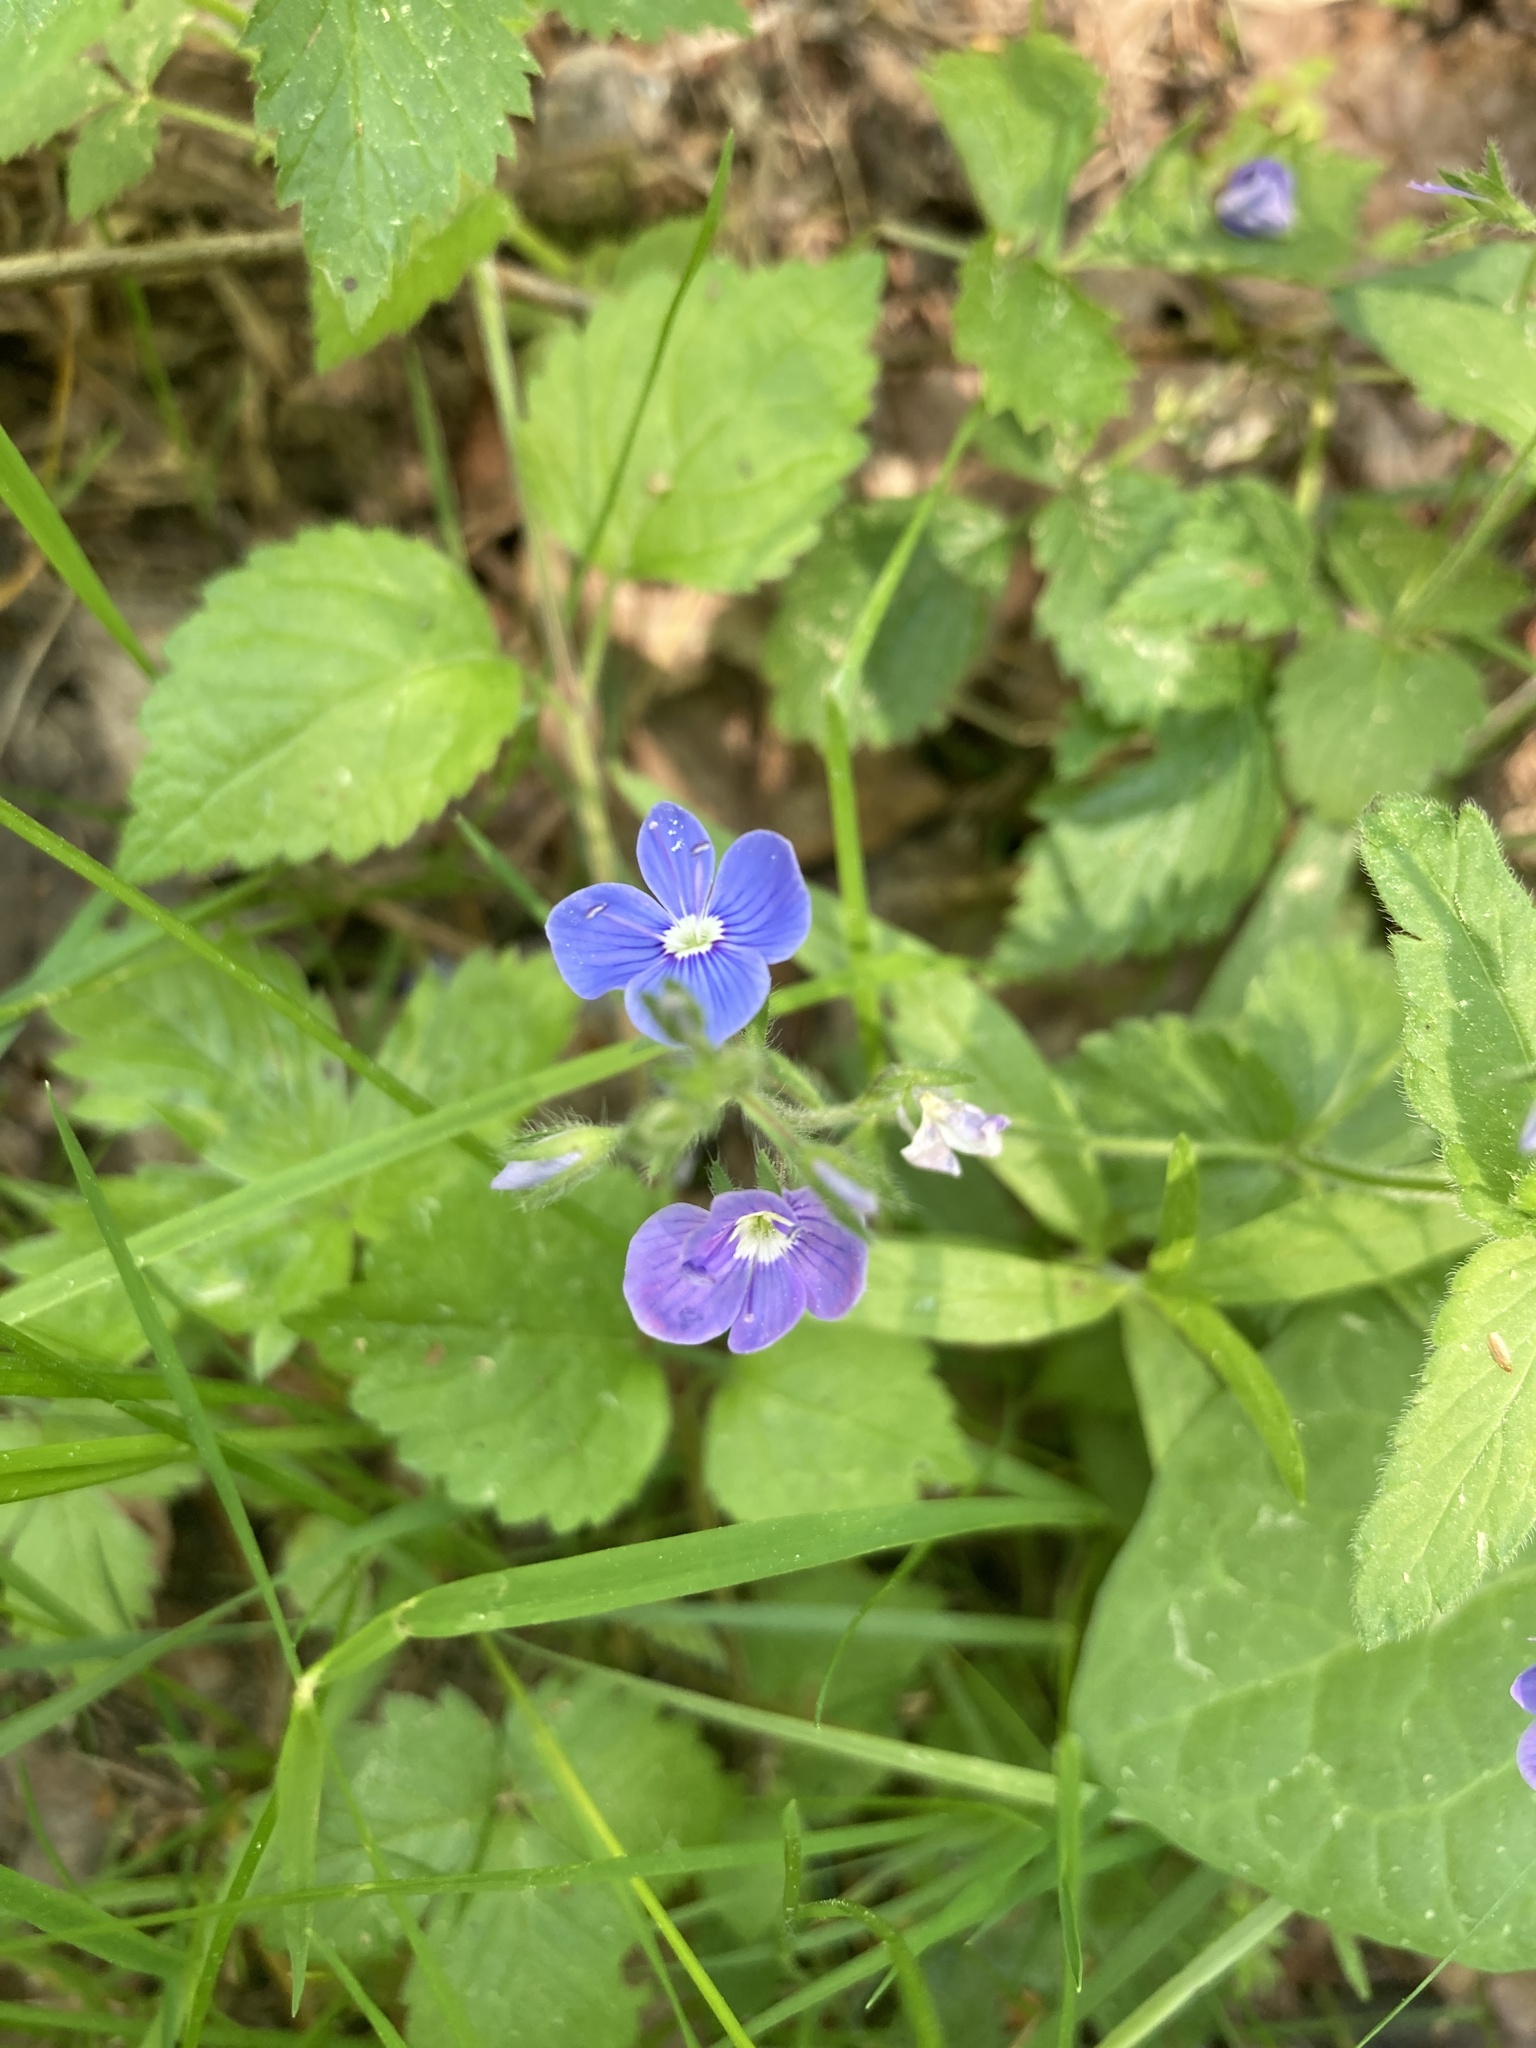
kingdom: Plantae
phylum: Tracheophyta
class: Magnoliopsida
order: Lamiales
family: Plantaginaceae
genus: Veronica
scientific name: Veronica chamaedrys
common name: Germander speedwell
